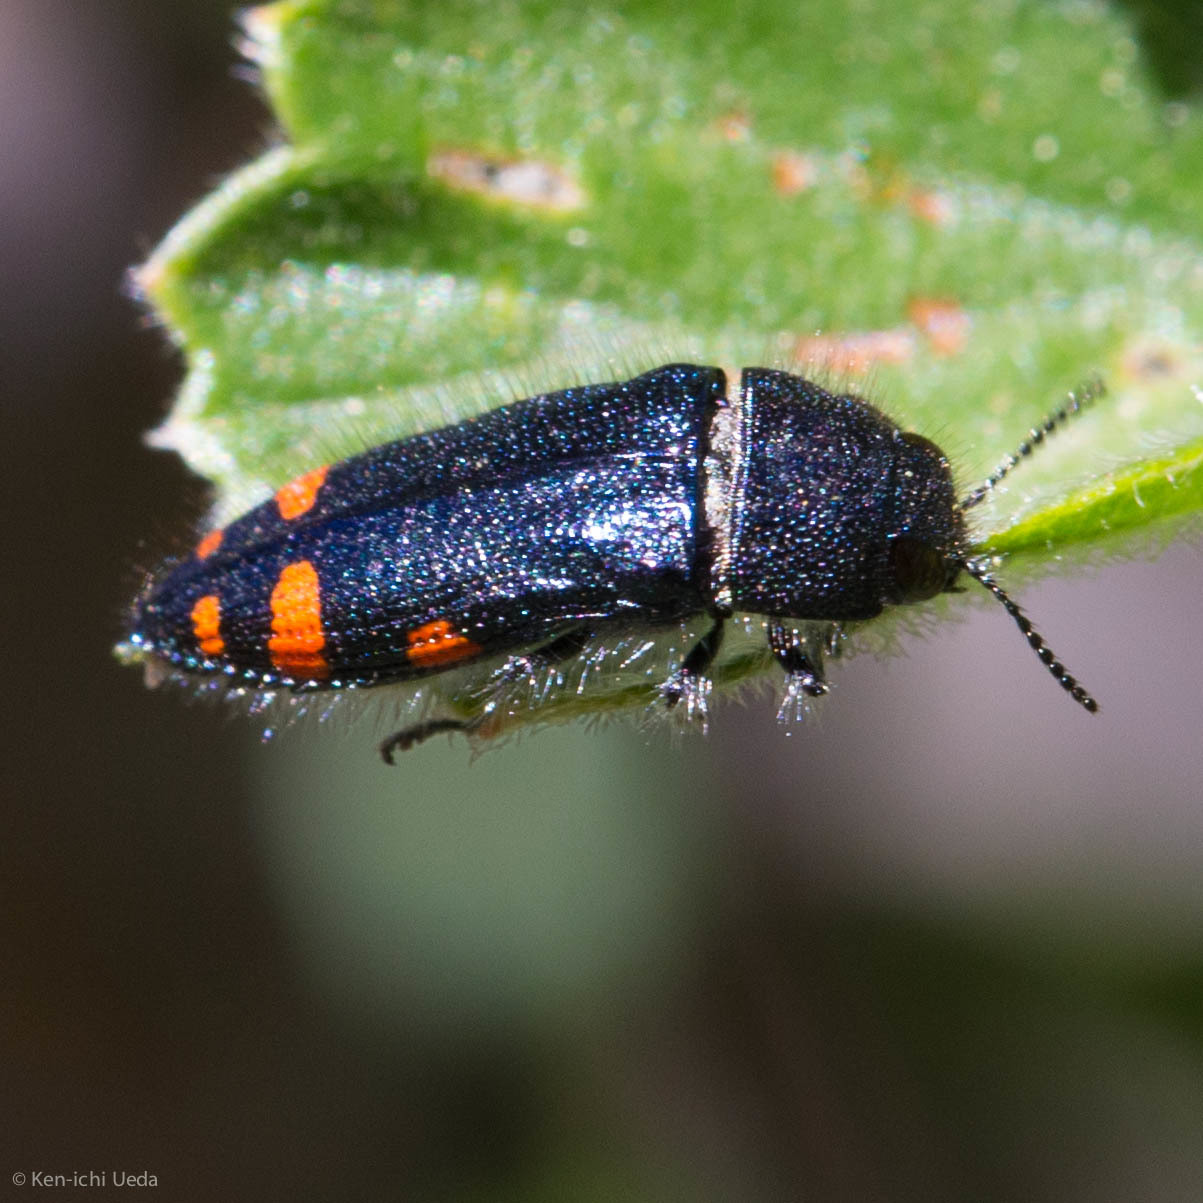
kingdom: Animalia
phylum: Arthropoda
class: Insecta
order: Coleoptera
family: Buprestidae
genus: Acmaeodera
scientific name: Acmaeodera mariposa
